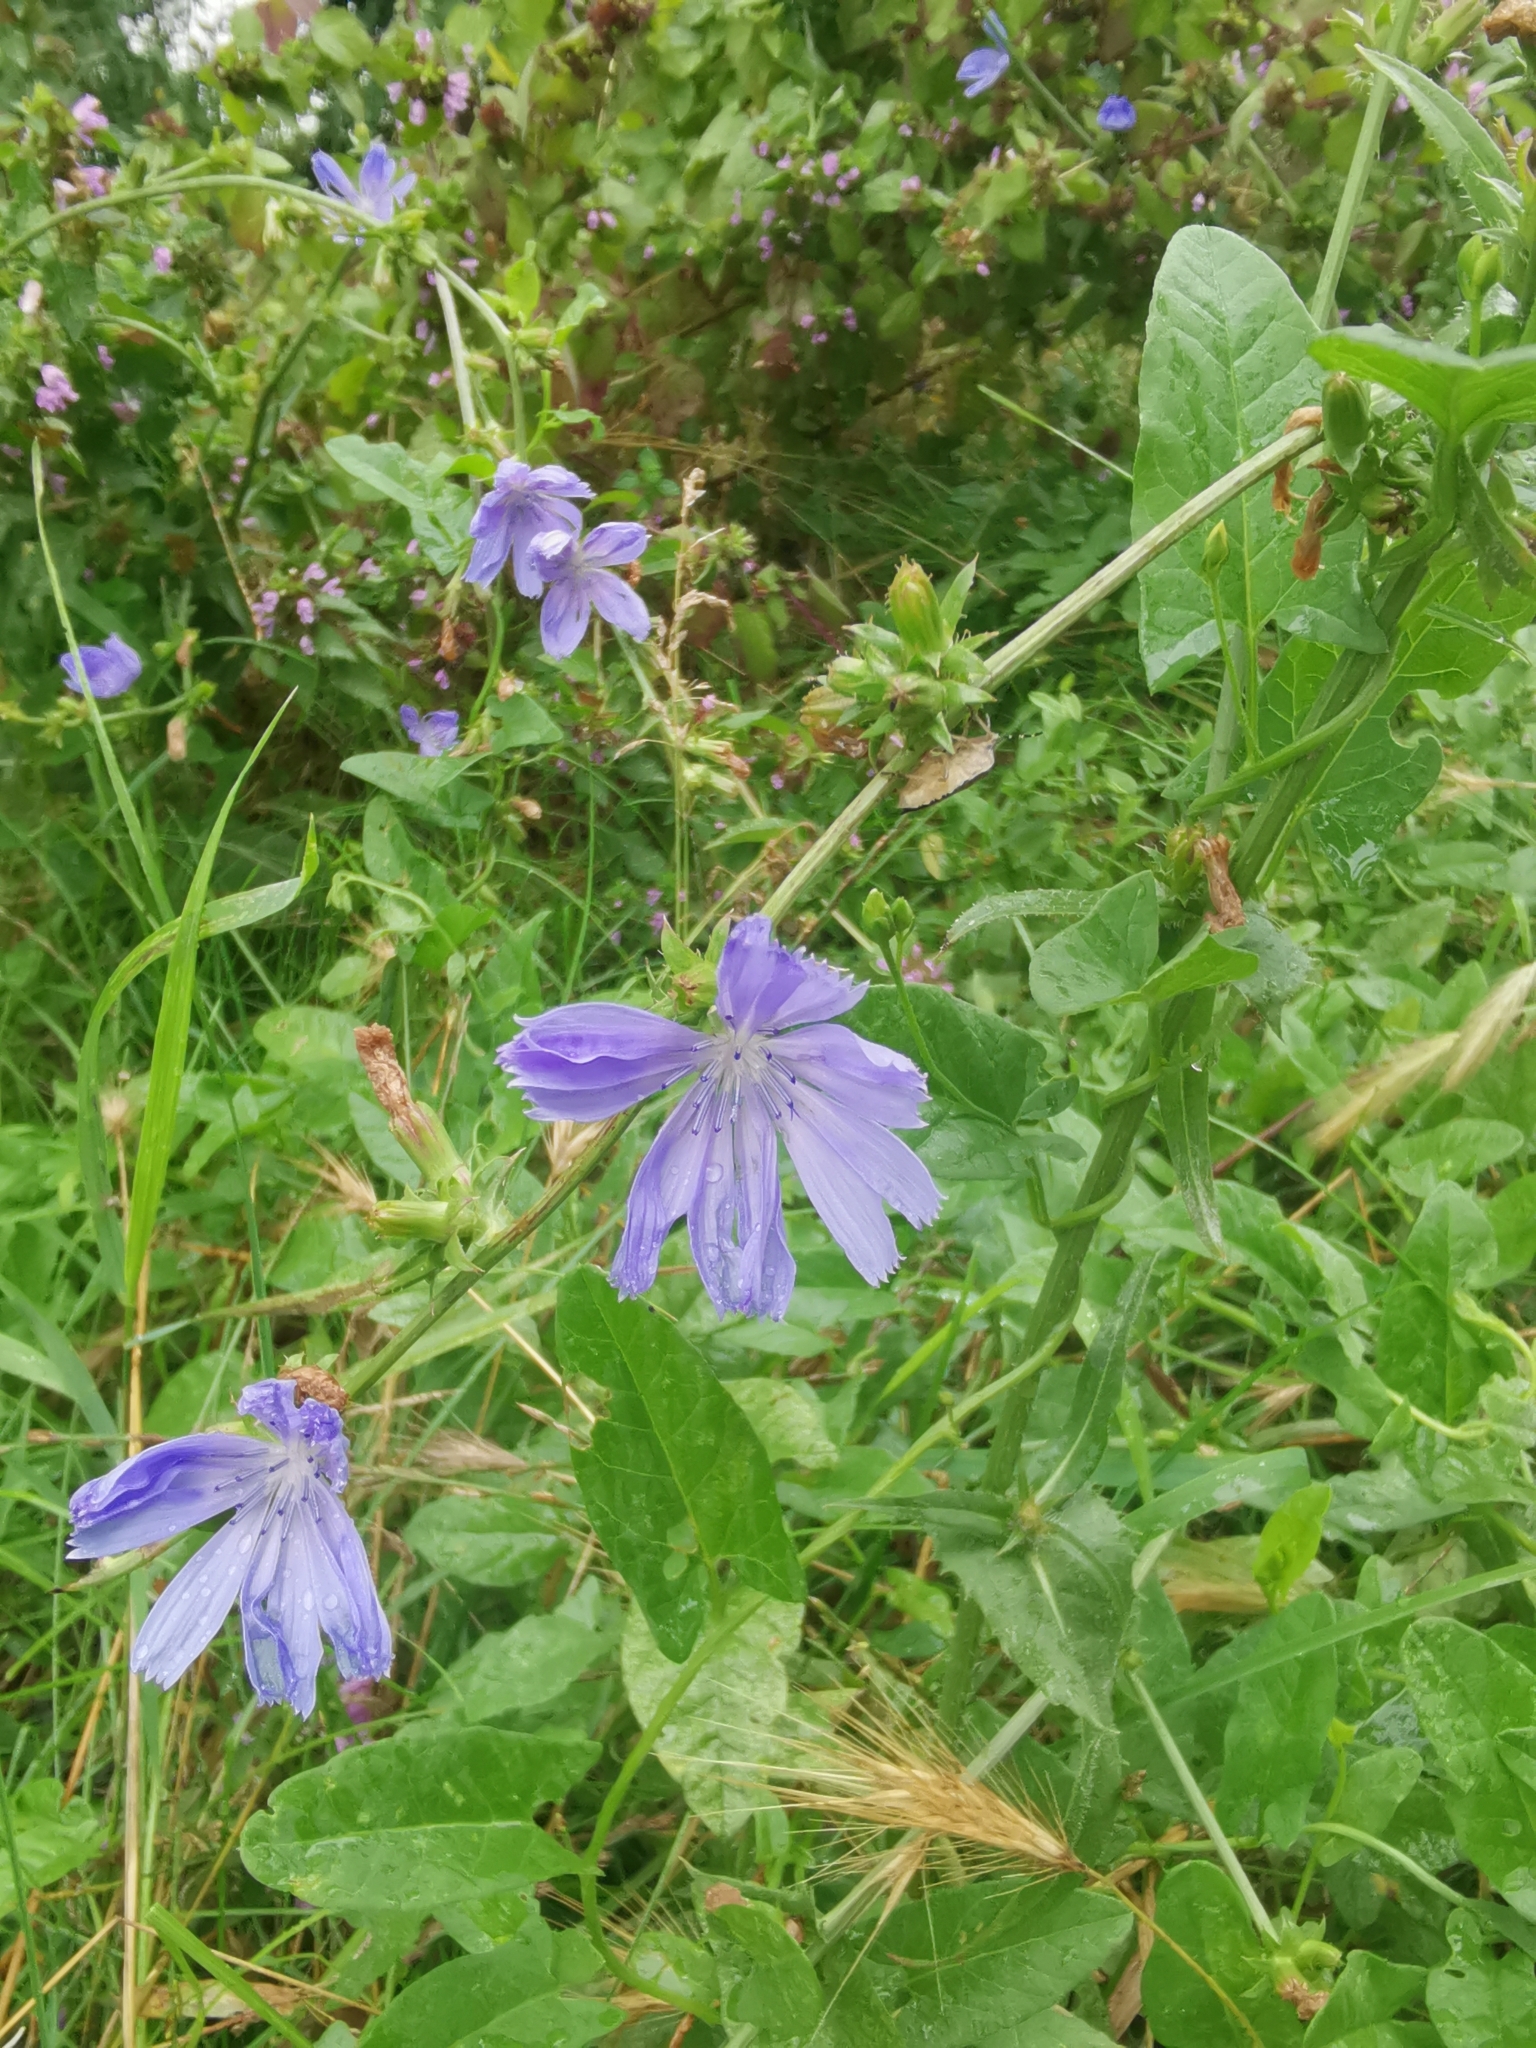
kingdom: Plantae
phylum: Tracheophyta
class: Magnoliopsida
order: Asterales
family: Asteraceae
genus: Cichorium
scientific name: Cichorium intybus
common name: Chicory
